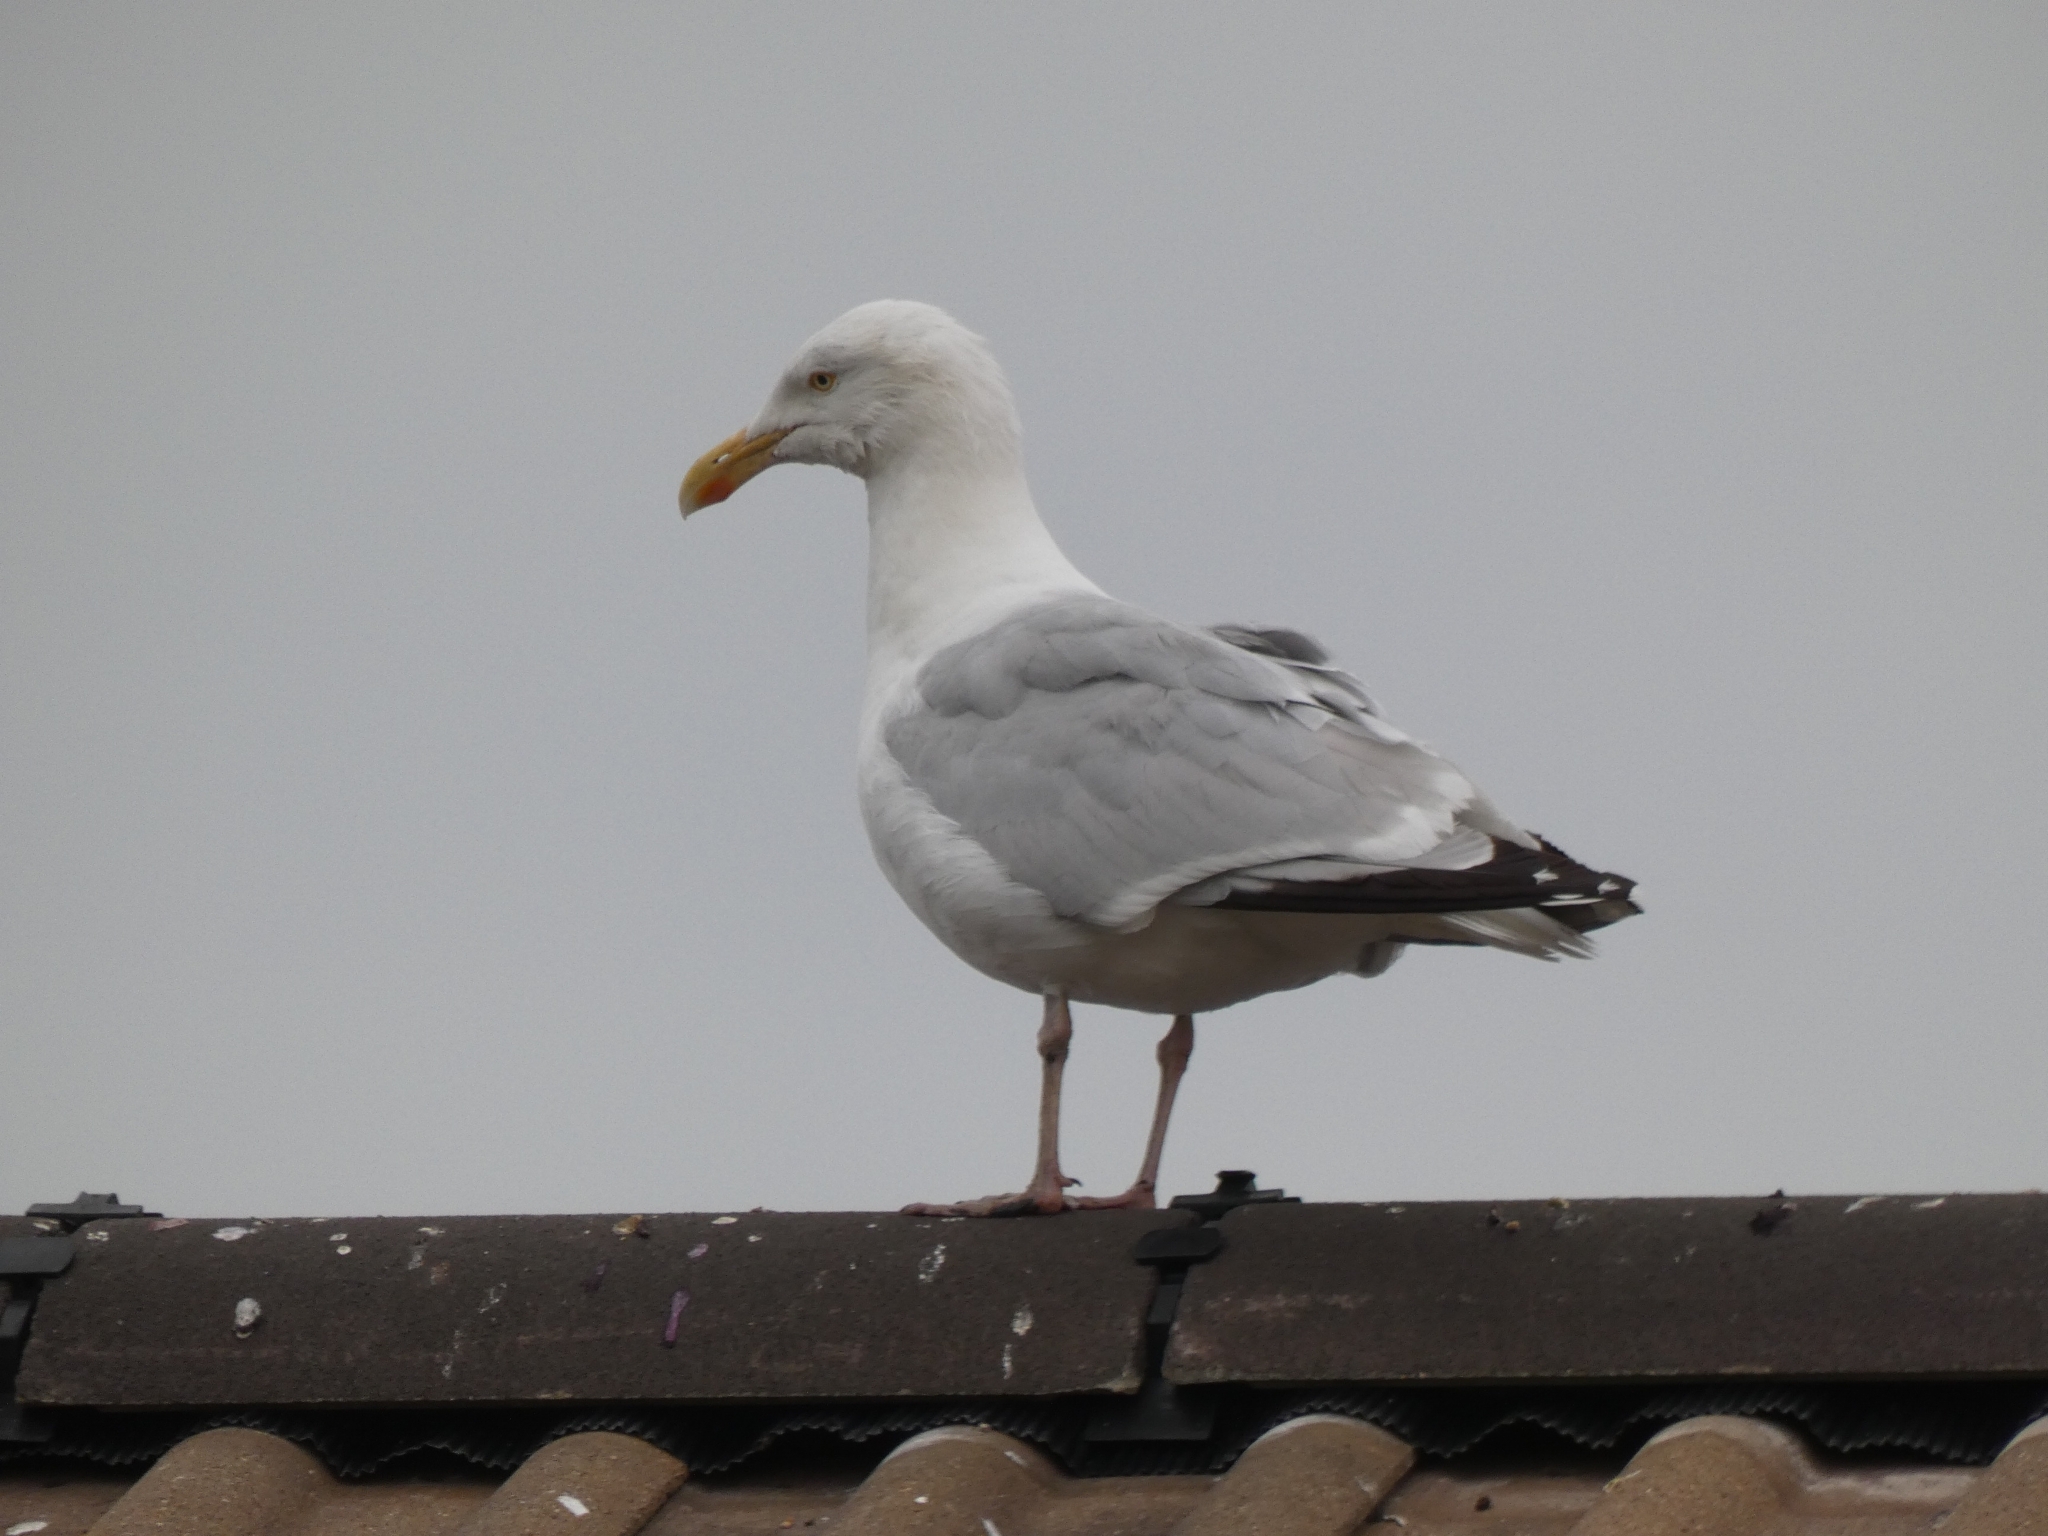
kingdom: Animalia
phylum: Chordata
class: Aves
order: Charadriiformes
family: Laridae
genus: Larus
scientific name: Larus argentatus
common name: Herring gull
